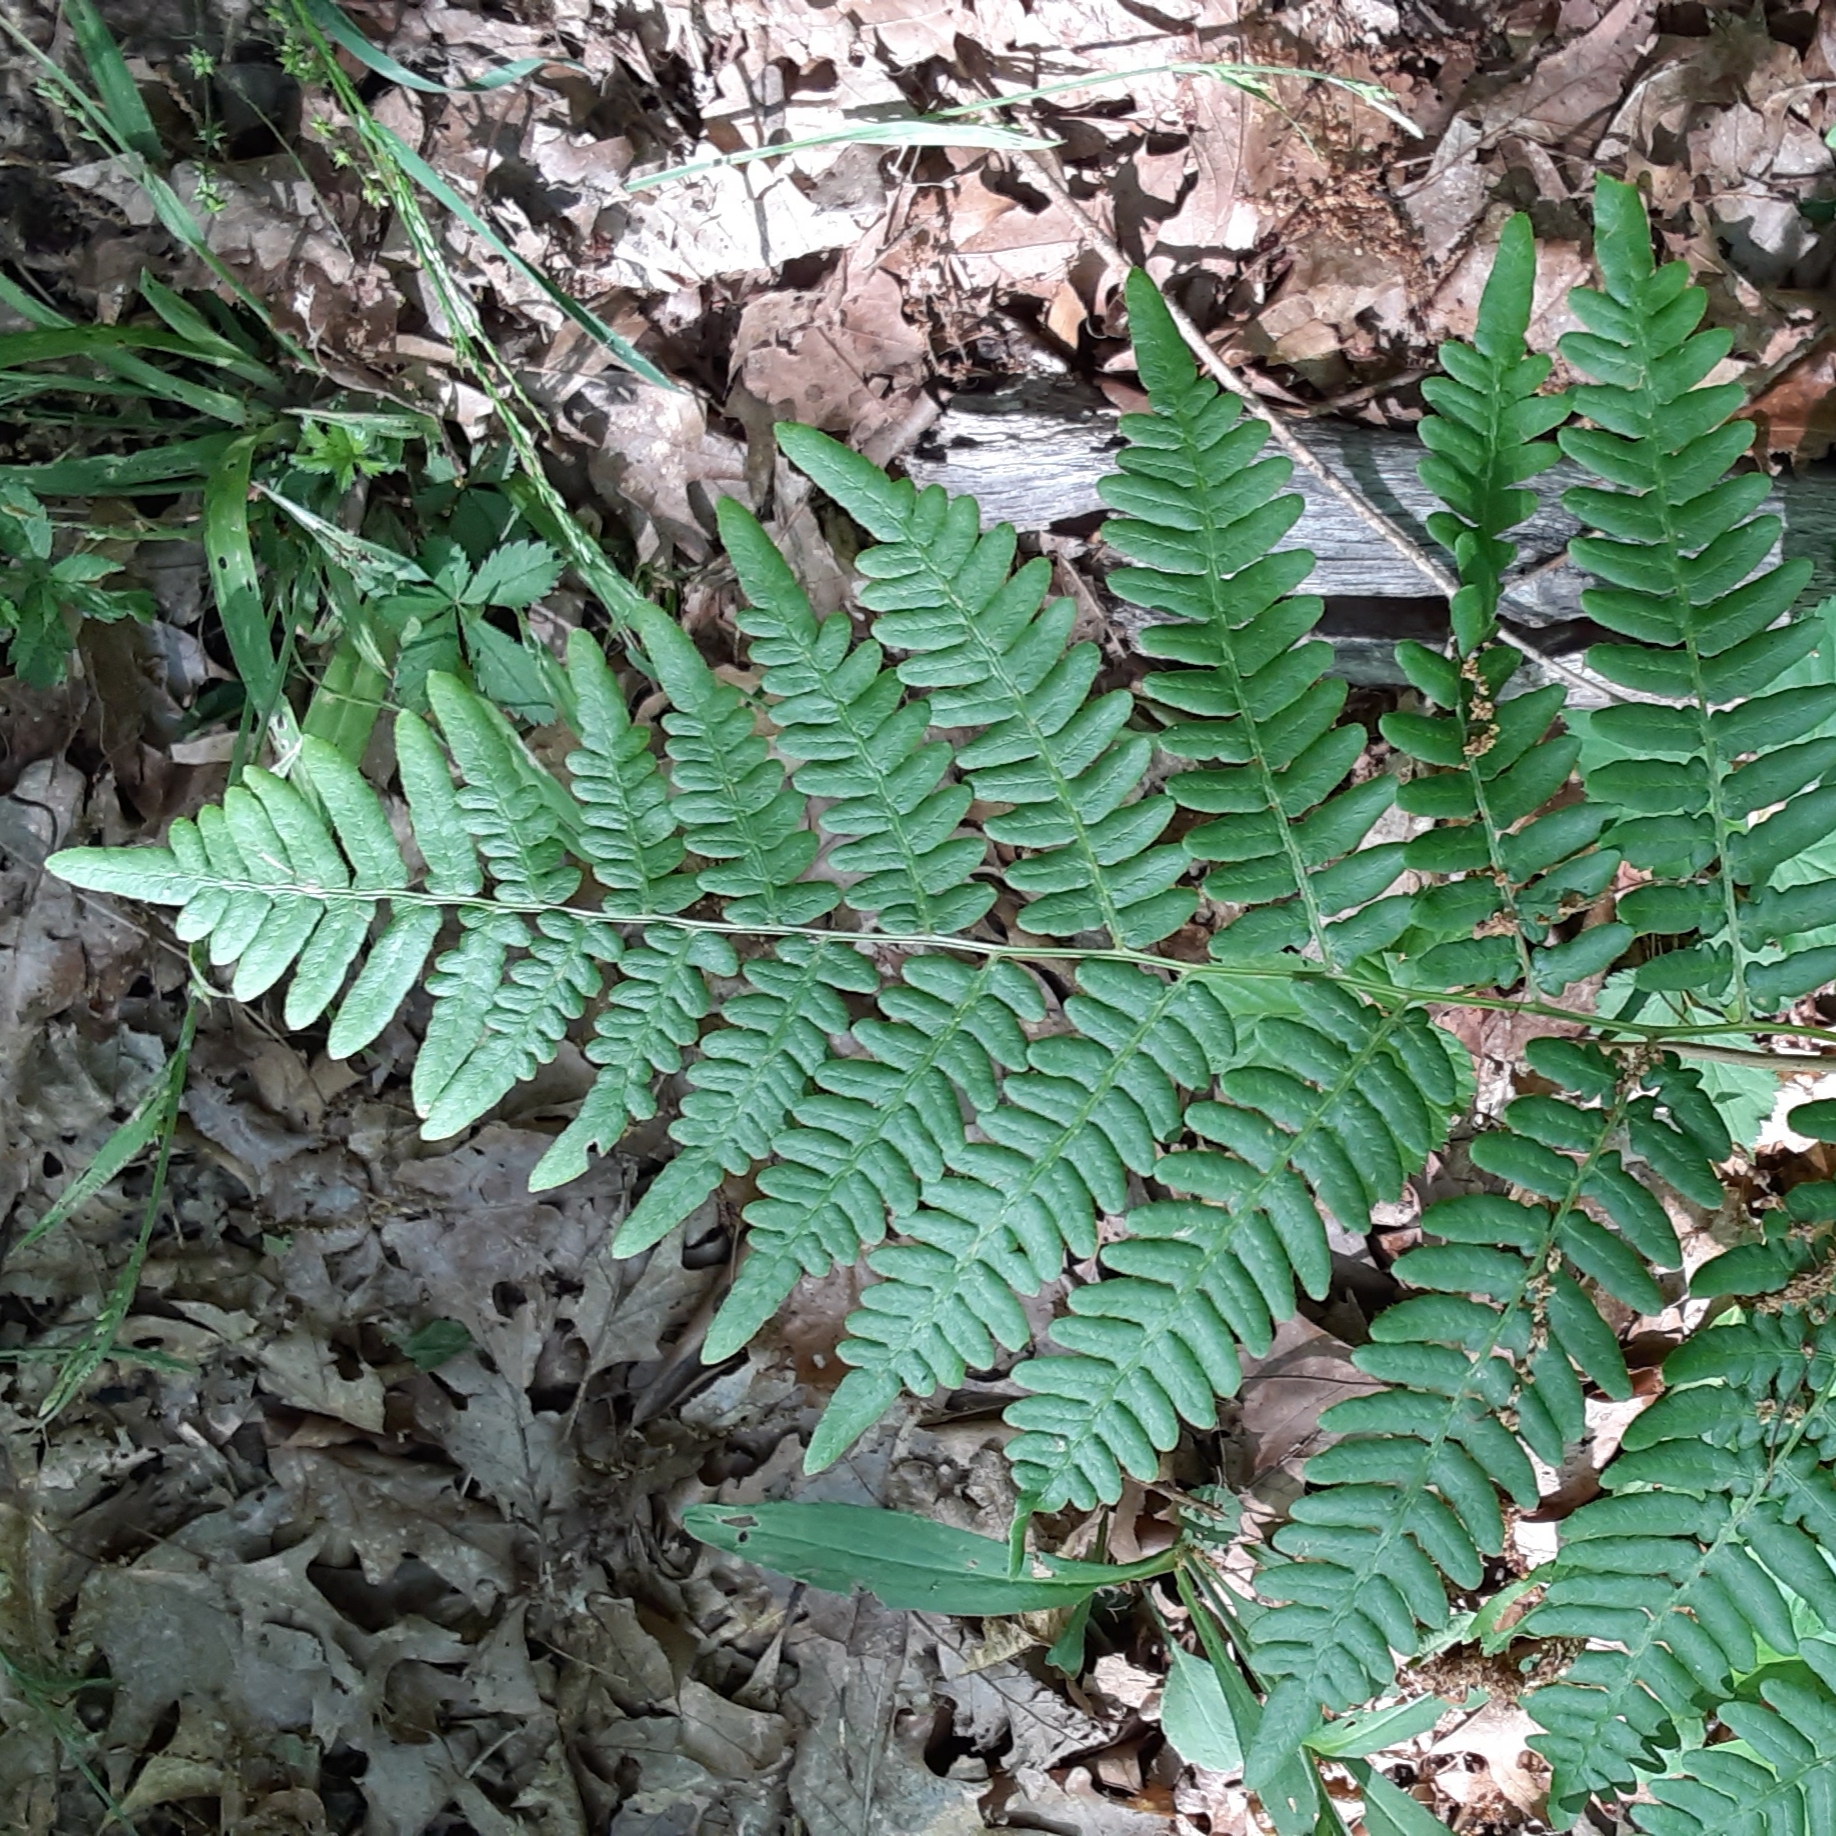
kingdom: Plantae
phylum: Tracheophyta
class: Polypodiopsida
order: Polypodiales
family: Dennstaedtiaceae
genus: Pteridium
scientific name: Pteridium aquilinum
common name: Bracken
